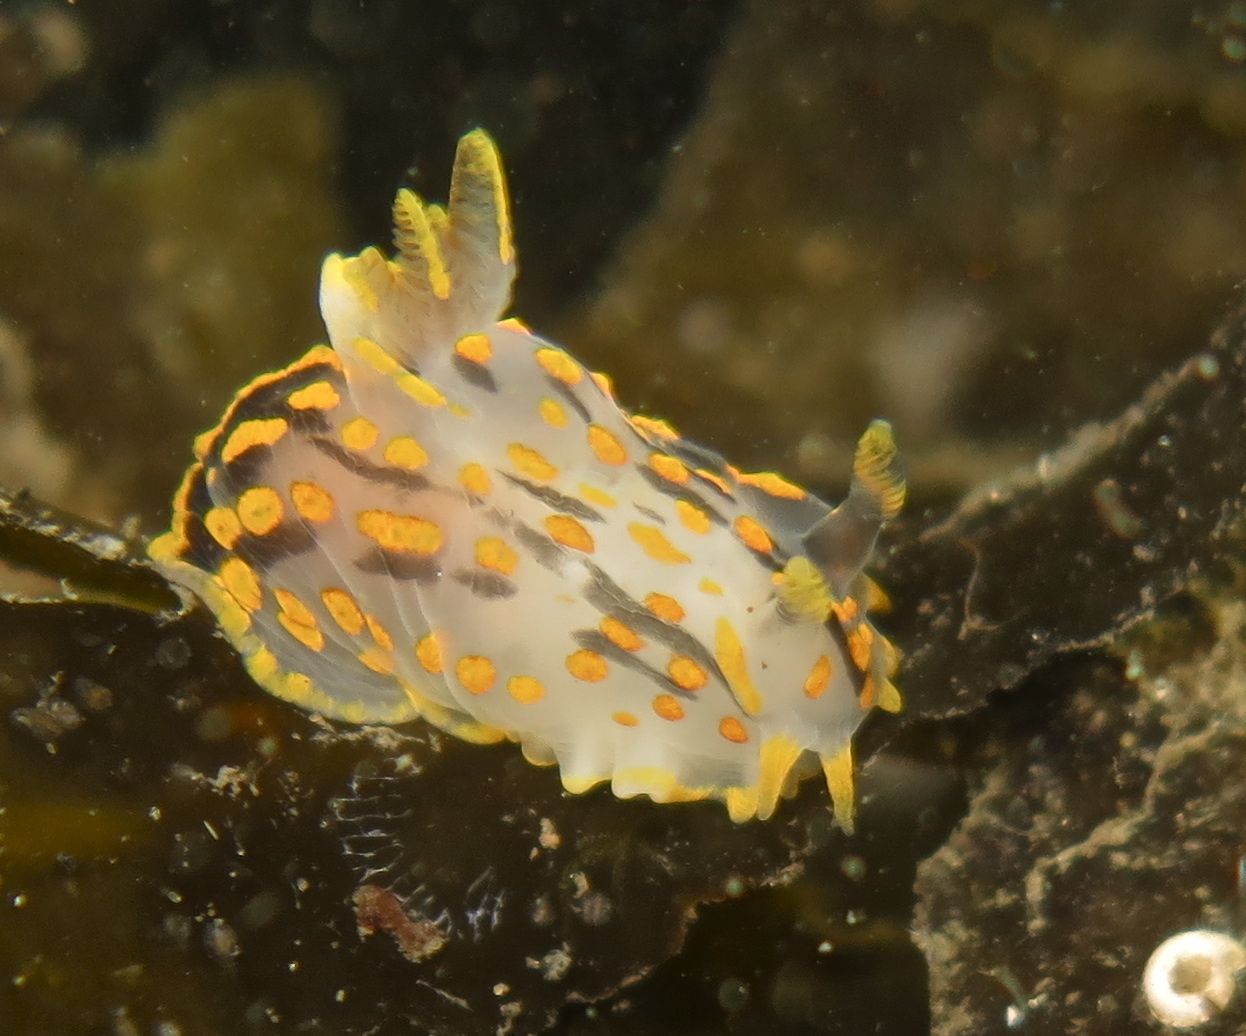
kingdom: Animalia
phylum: Mollusca
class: Gastropoda
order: Nudibranchia
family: Polyceridae
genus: Polycera
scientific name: Polycera quadrilineata
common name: Four-striped polycera
